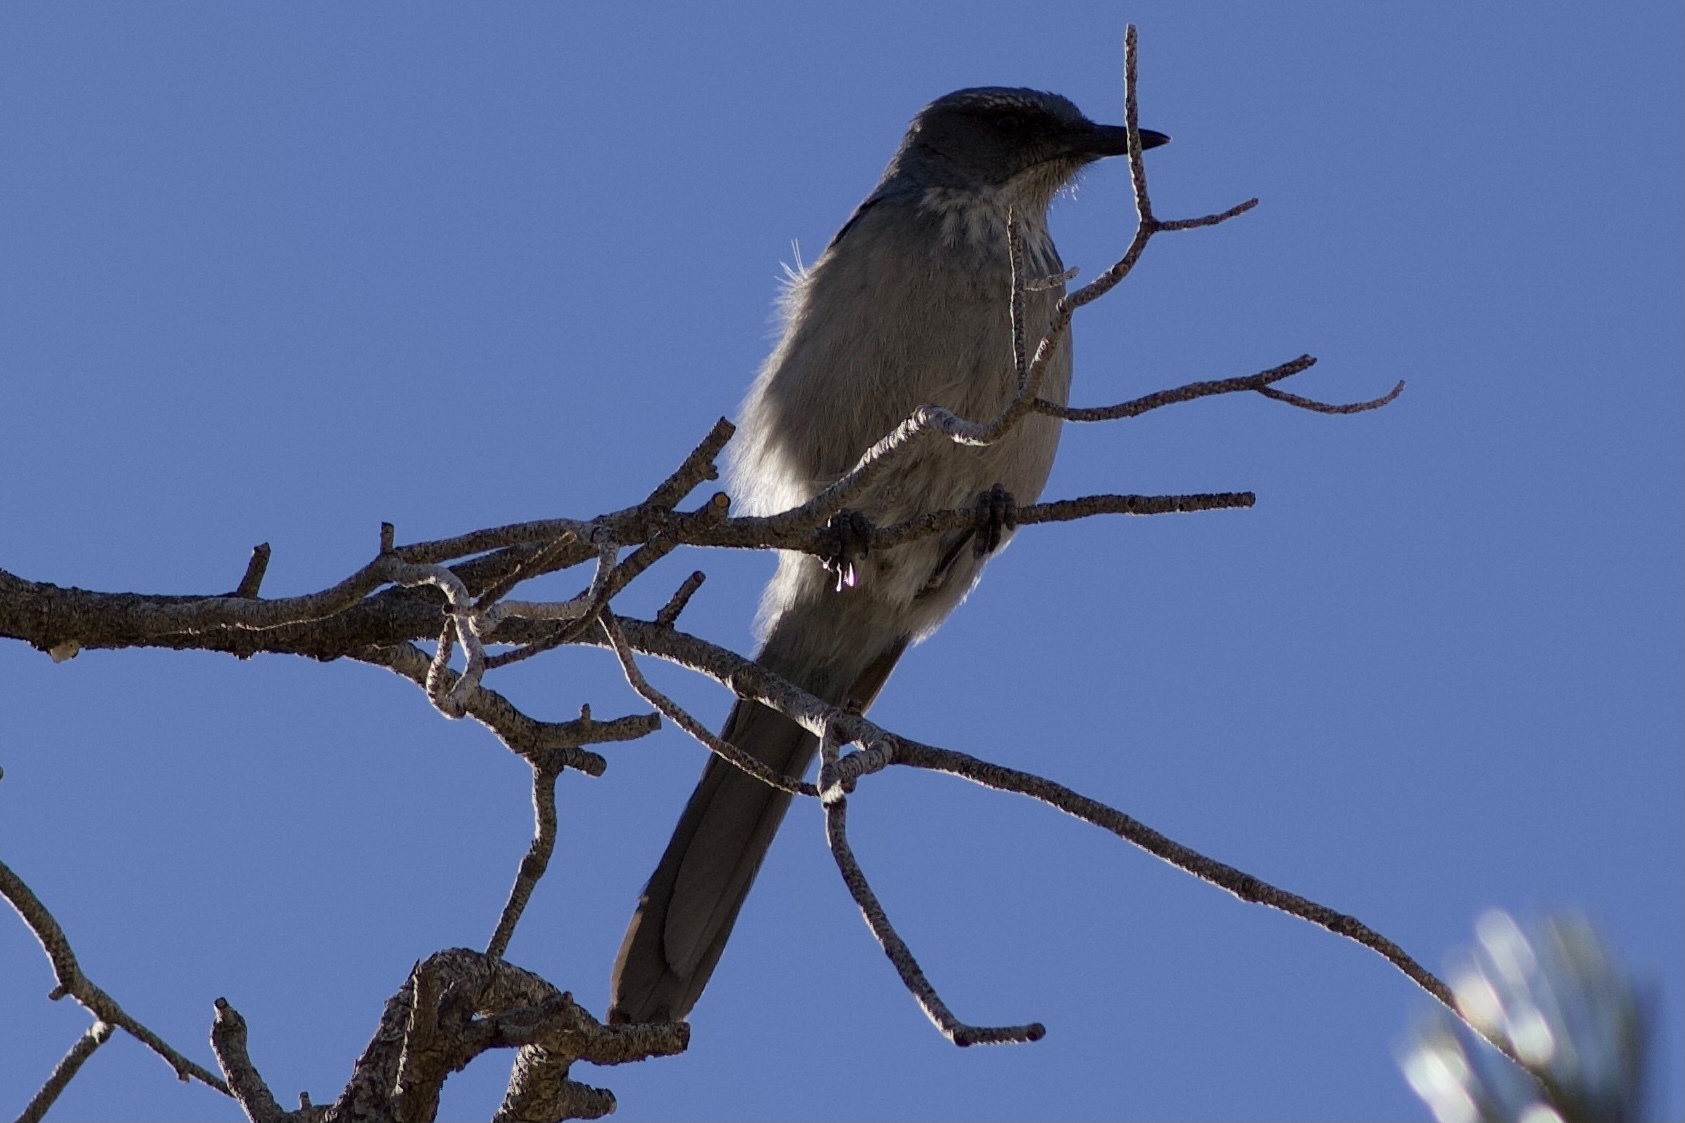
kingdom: Animalia
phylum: Chordata
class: Aves
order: Passeriformes
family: Corvidae
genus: Aphelocoma
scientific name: Aphelocoma woodhouseii
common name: Woodhouse's scrub-jay
